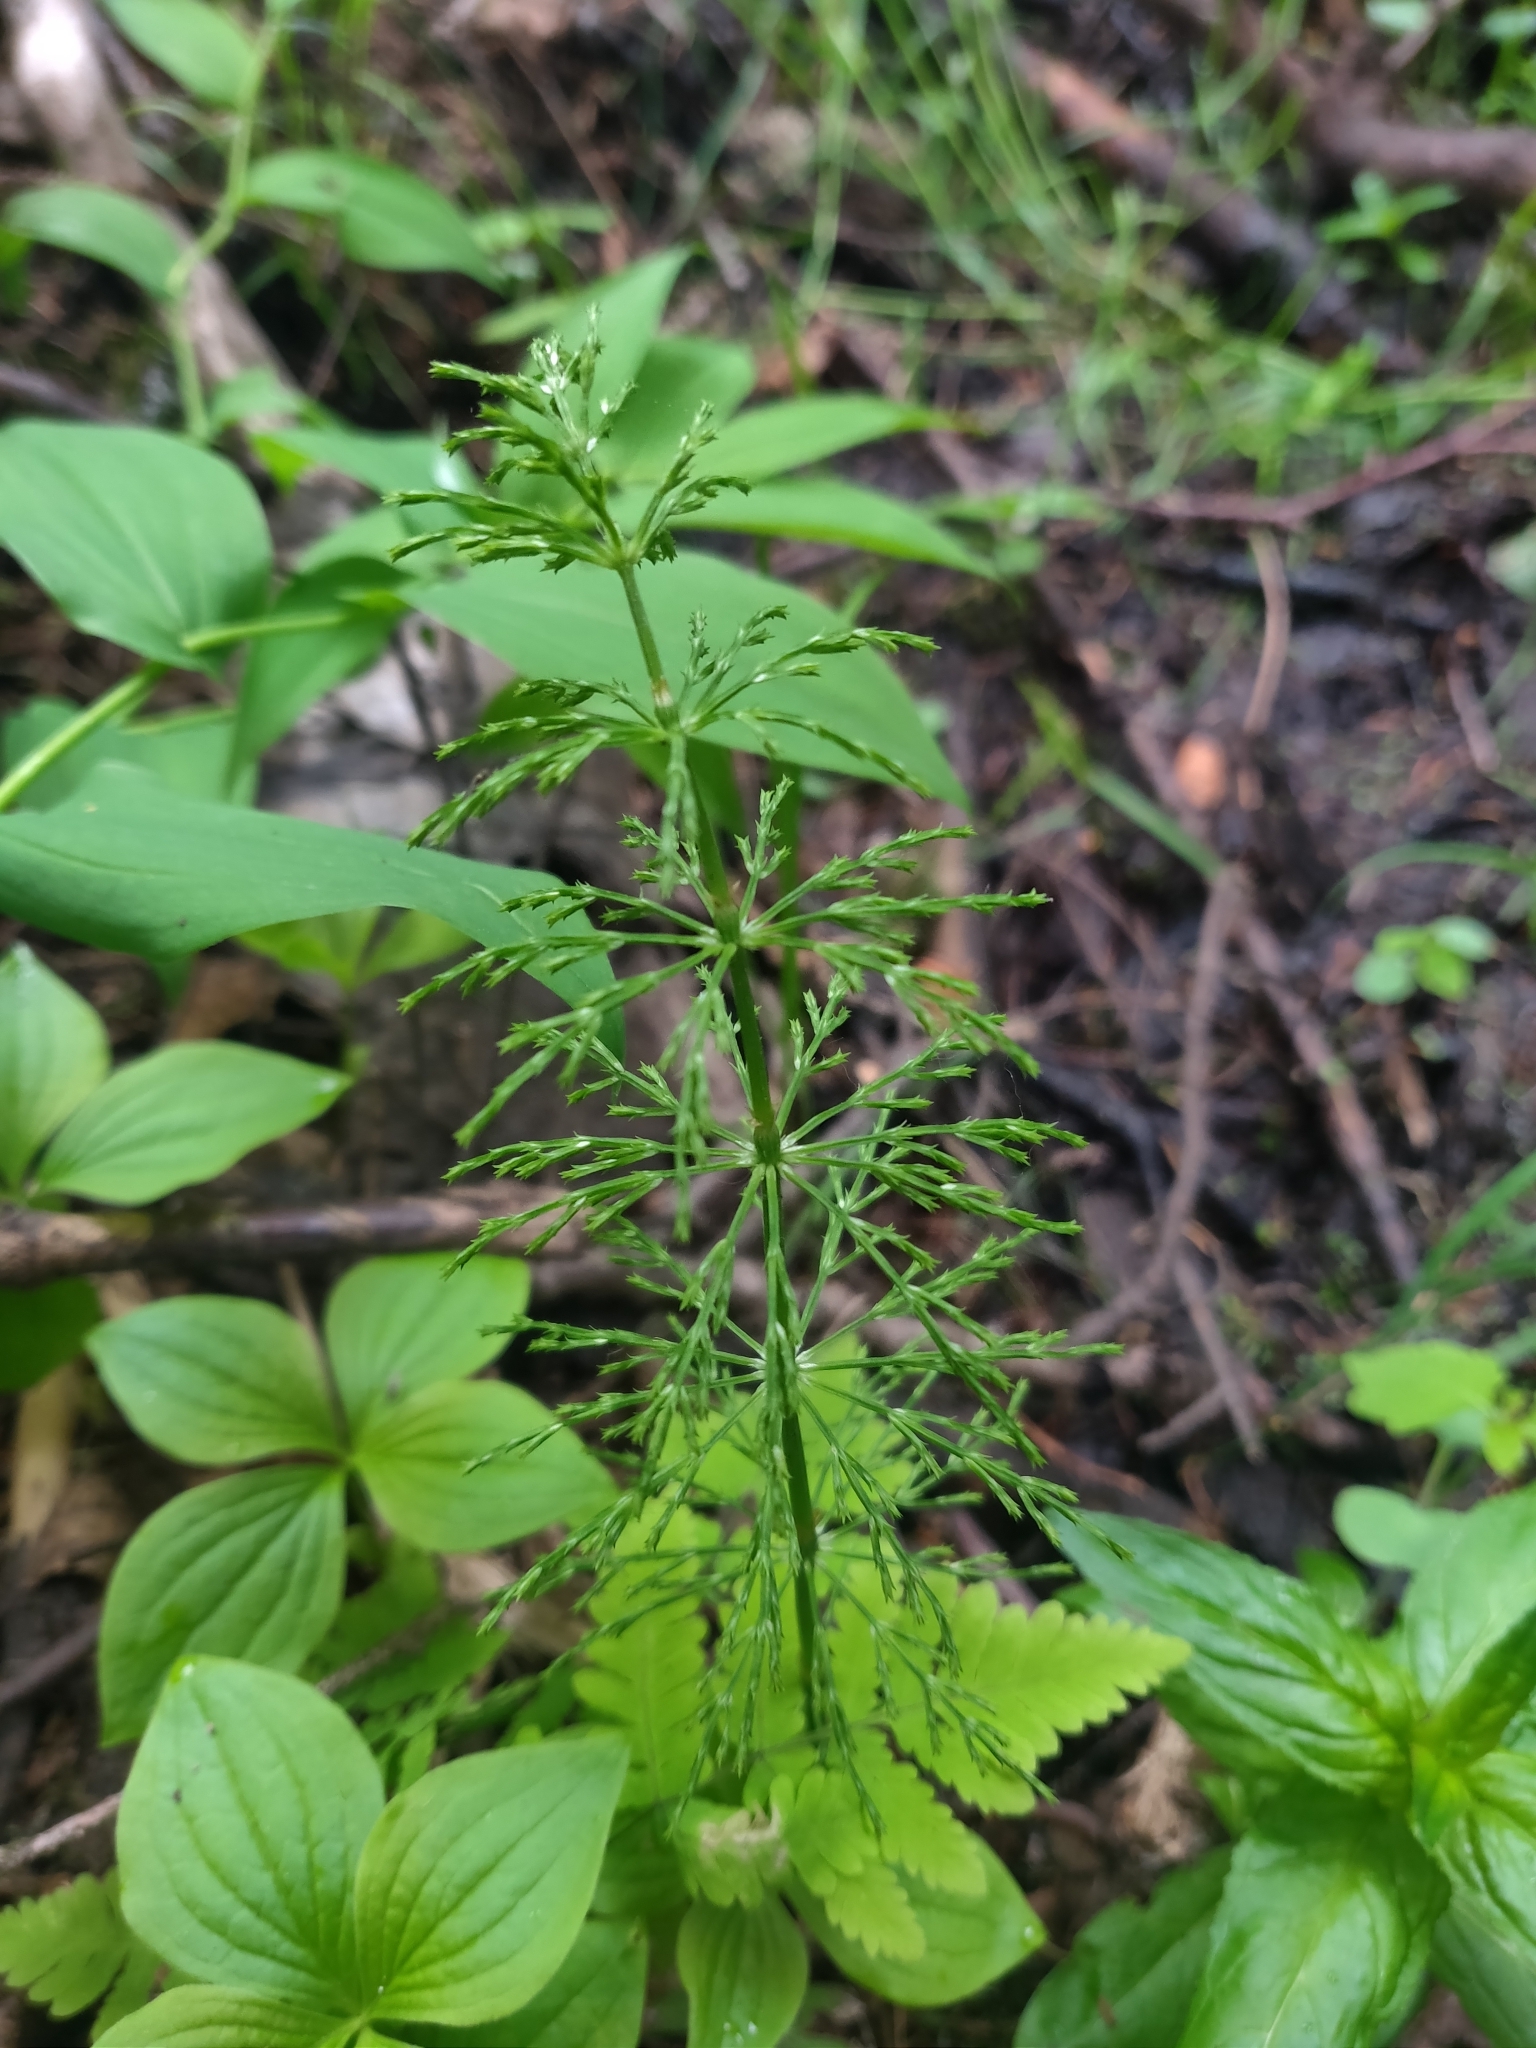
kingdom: Plantae
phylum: Tracheophyta
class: Polypodiopsida
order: Equisetales
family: Equisetaceae
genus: Equisetum
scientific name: Equisetum sylvaticum
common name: Wood horsetail
